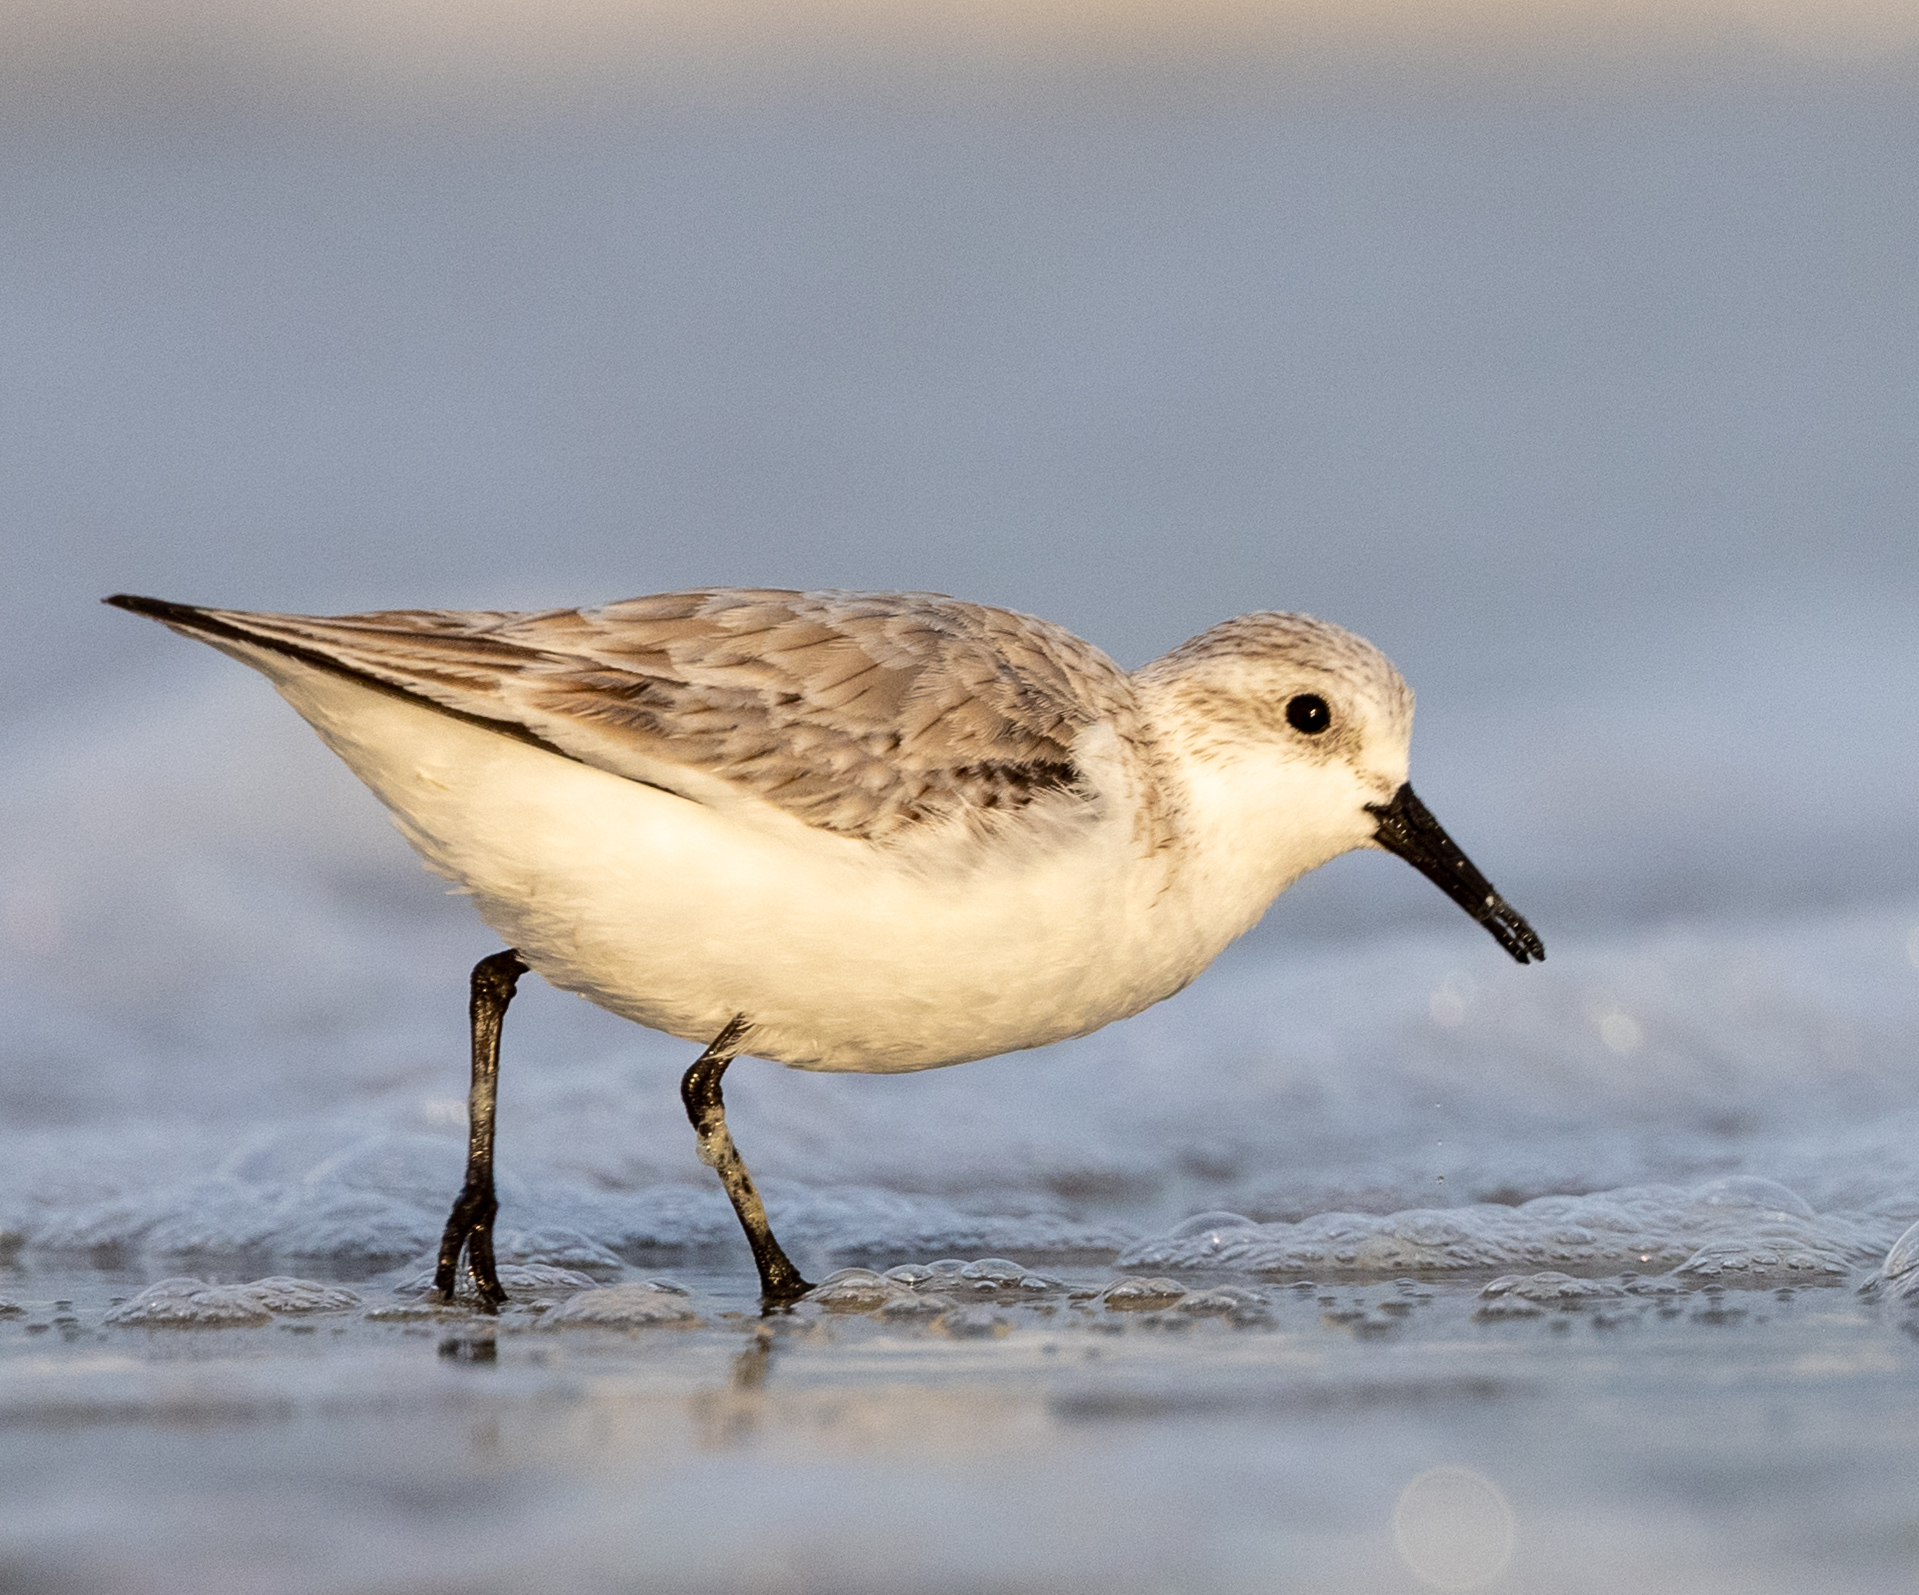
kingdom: Animalia
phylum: Chordata
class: Aves
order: Charadriiformes
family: Scolopacidae
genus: Calidris
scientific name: Calidris alba
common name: Sanderling
